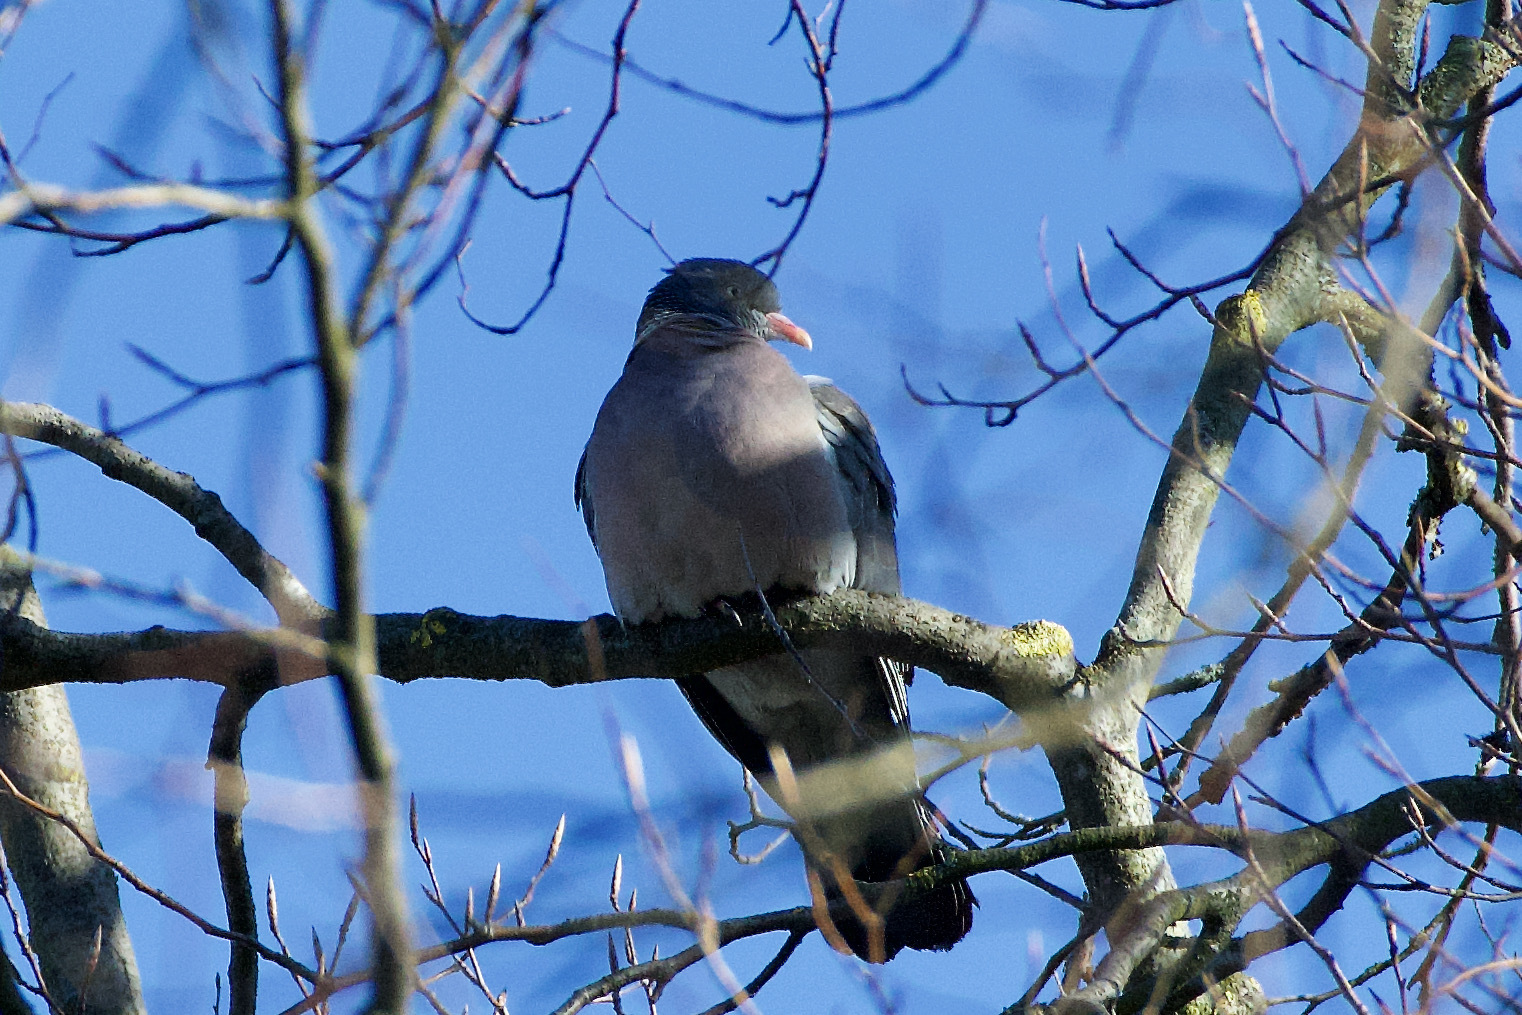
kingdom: Animalia
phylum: Chordata
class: Aves
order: Columbiformes
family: Columbidae
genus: Columba
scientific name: Columba palumbus
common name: Common wood pigeon
